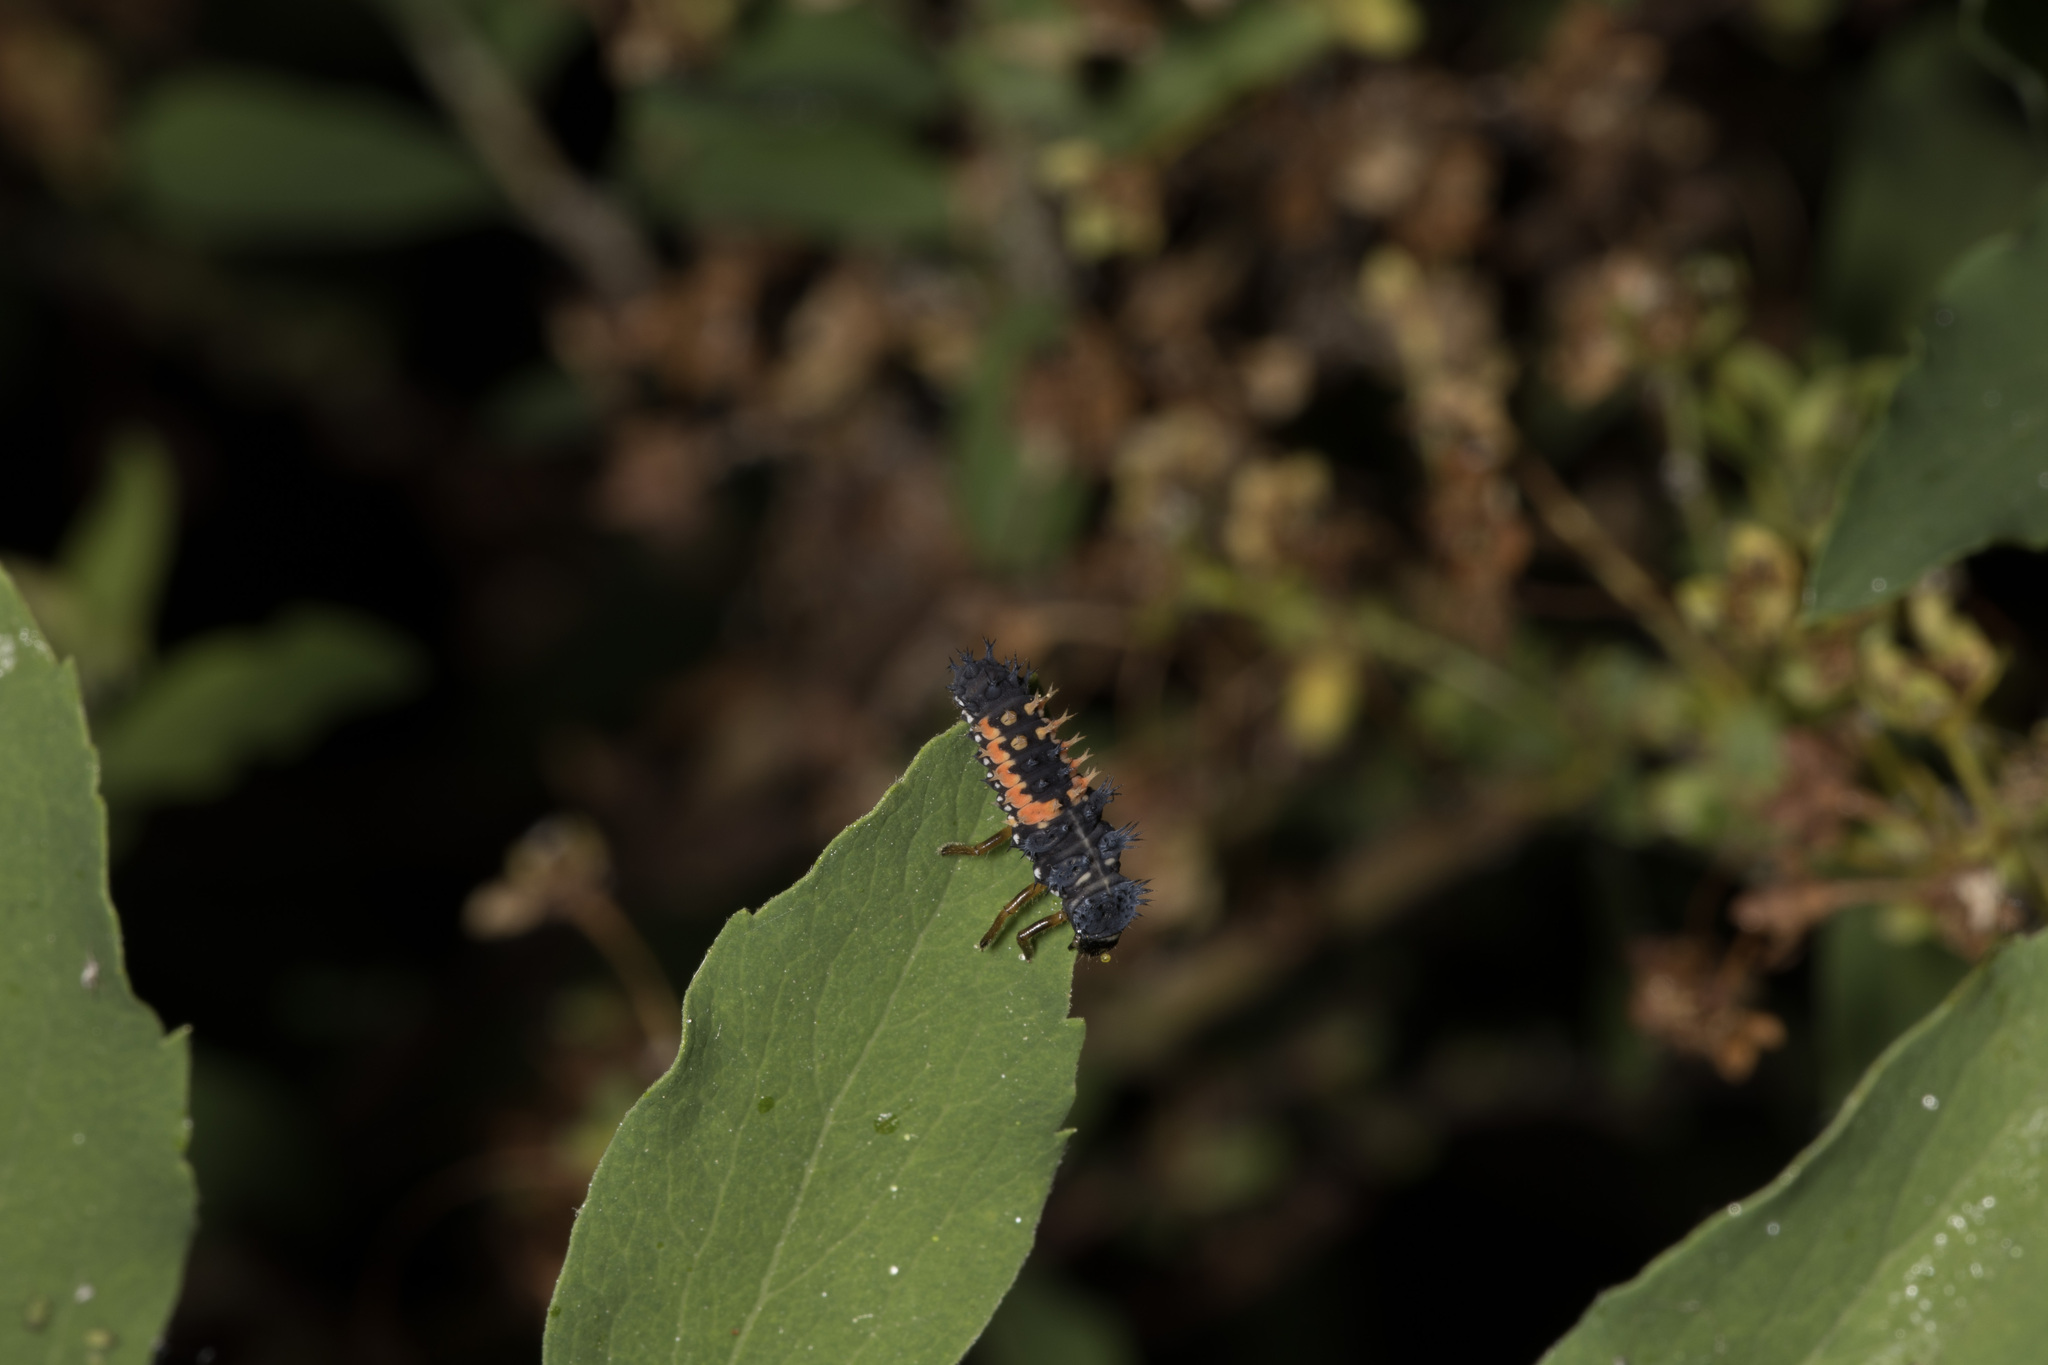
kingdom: Animalia
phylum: Arthropoda
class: Insecta
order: Coleoptera
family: Coccinellidae
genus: Harmonia
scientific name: Harmonia axyridis
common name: Harlequin ladybird
